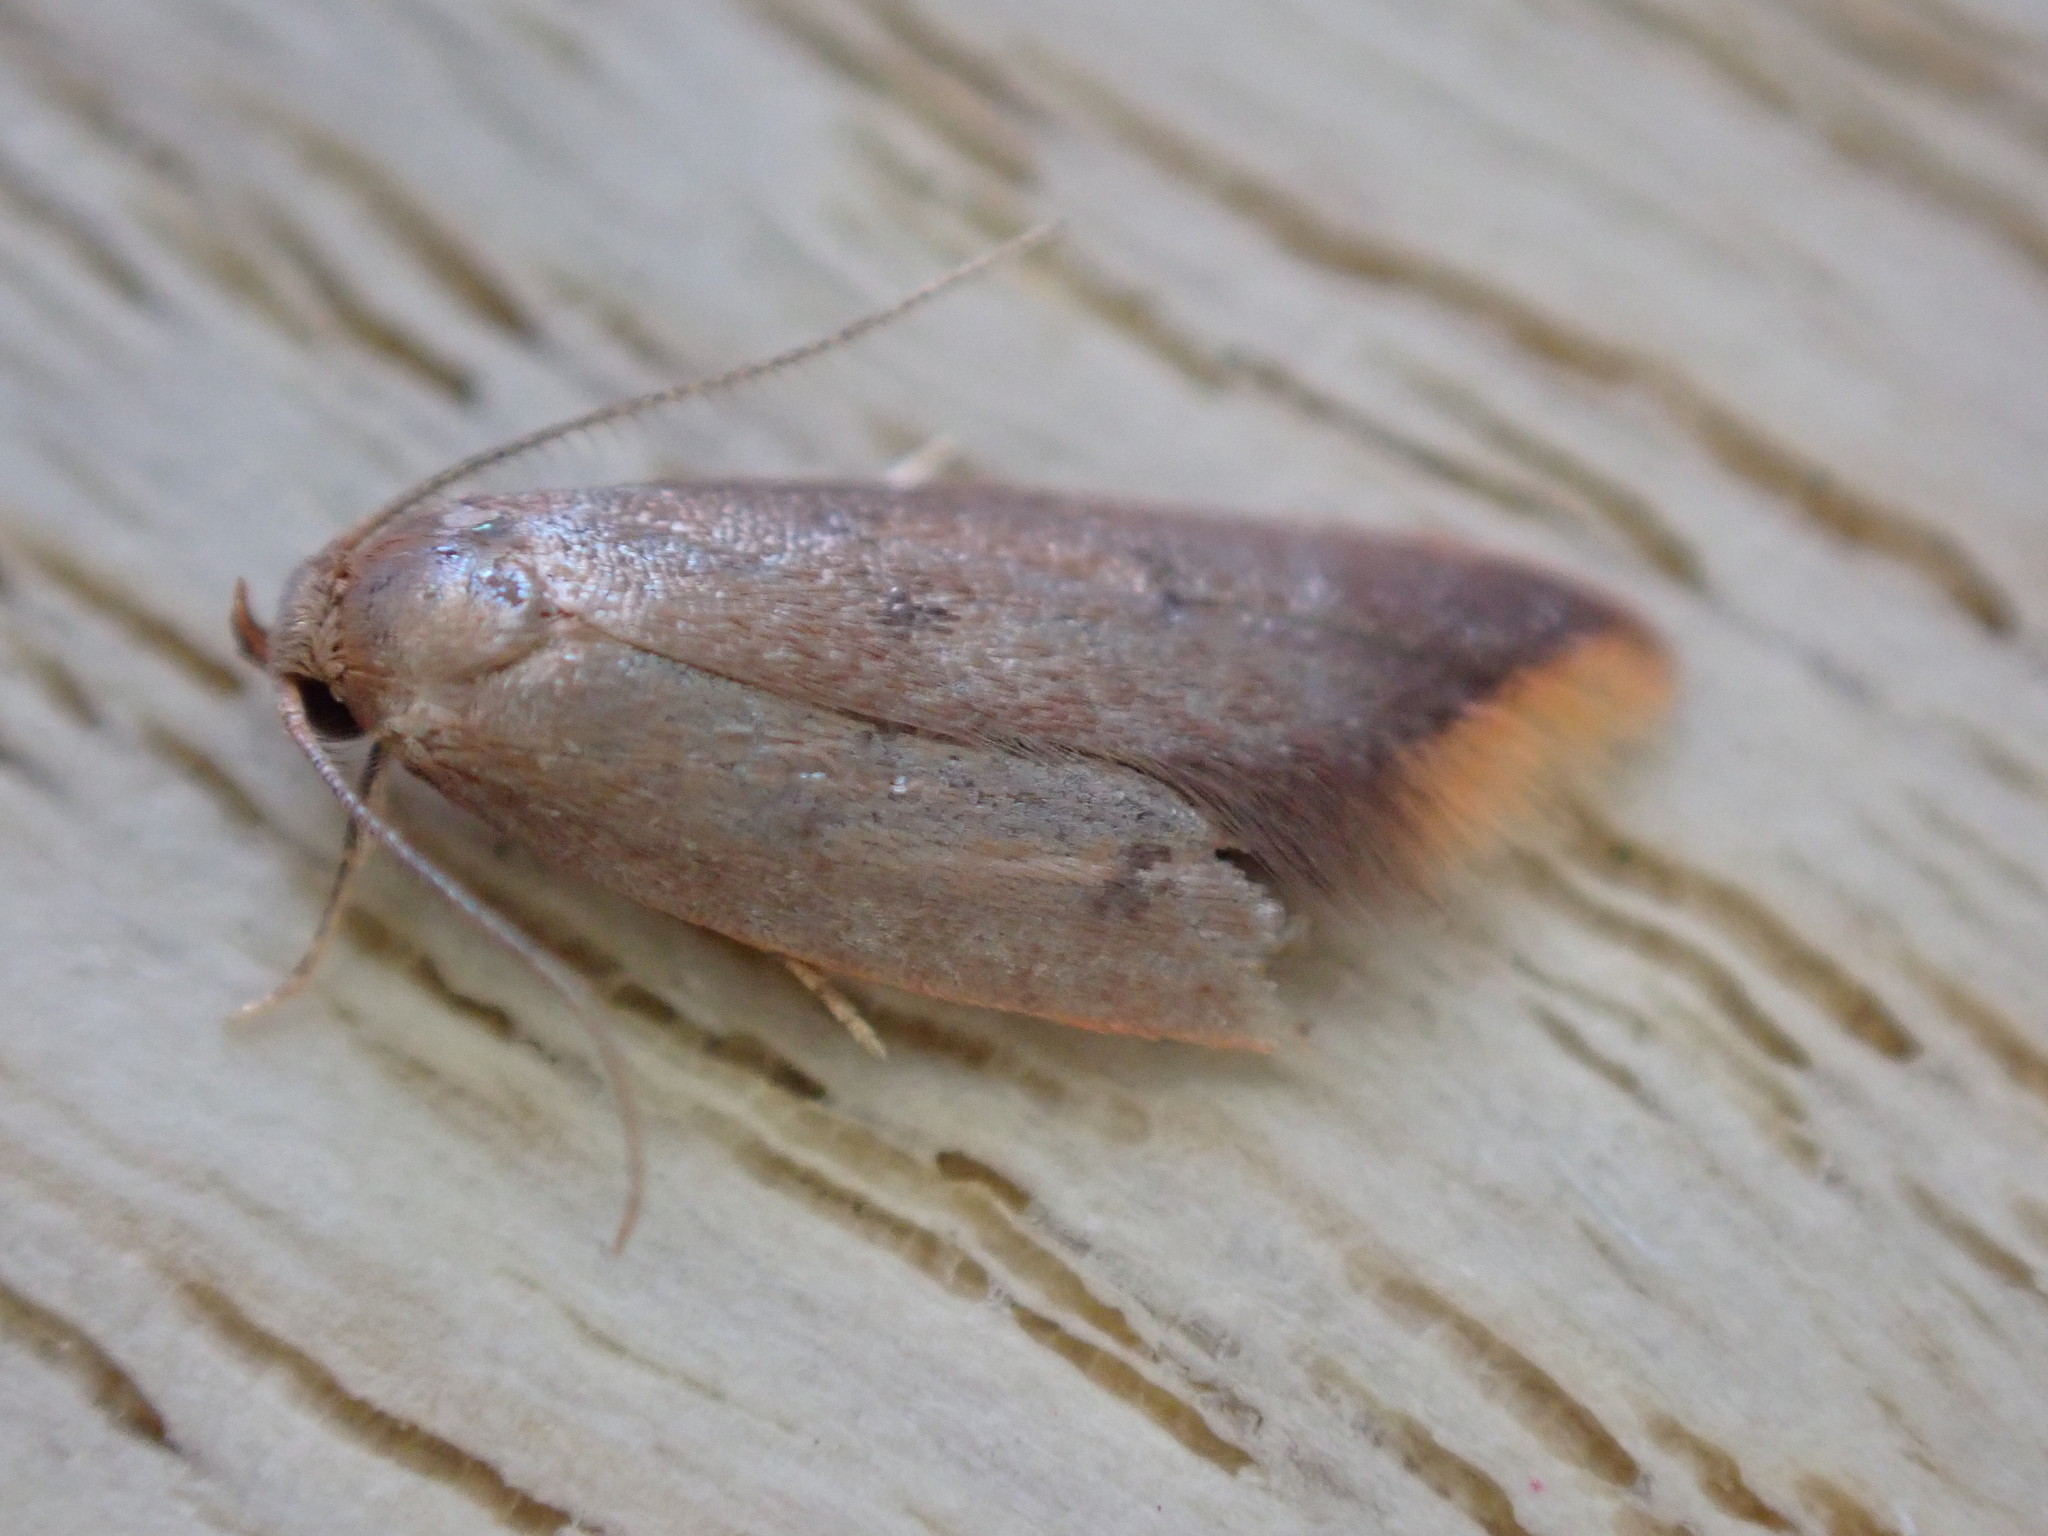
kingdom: Animalia
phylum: Arthropoda
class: Insecta
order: Lepidoptera
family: Oecophoridae
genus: Tachystola
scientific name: Tachystola acroxantha
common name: Ruddy streak
